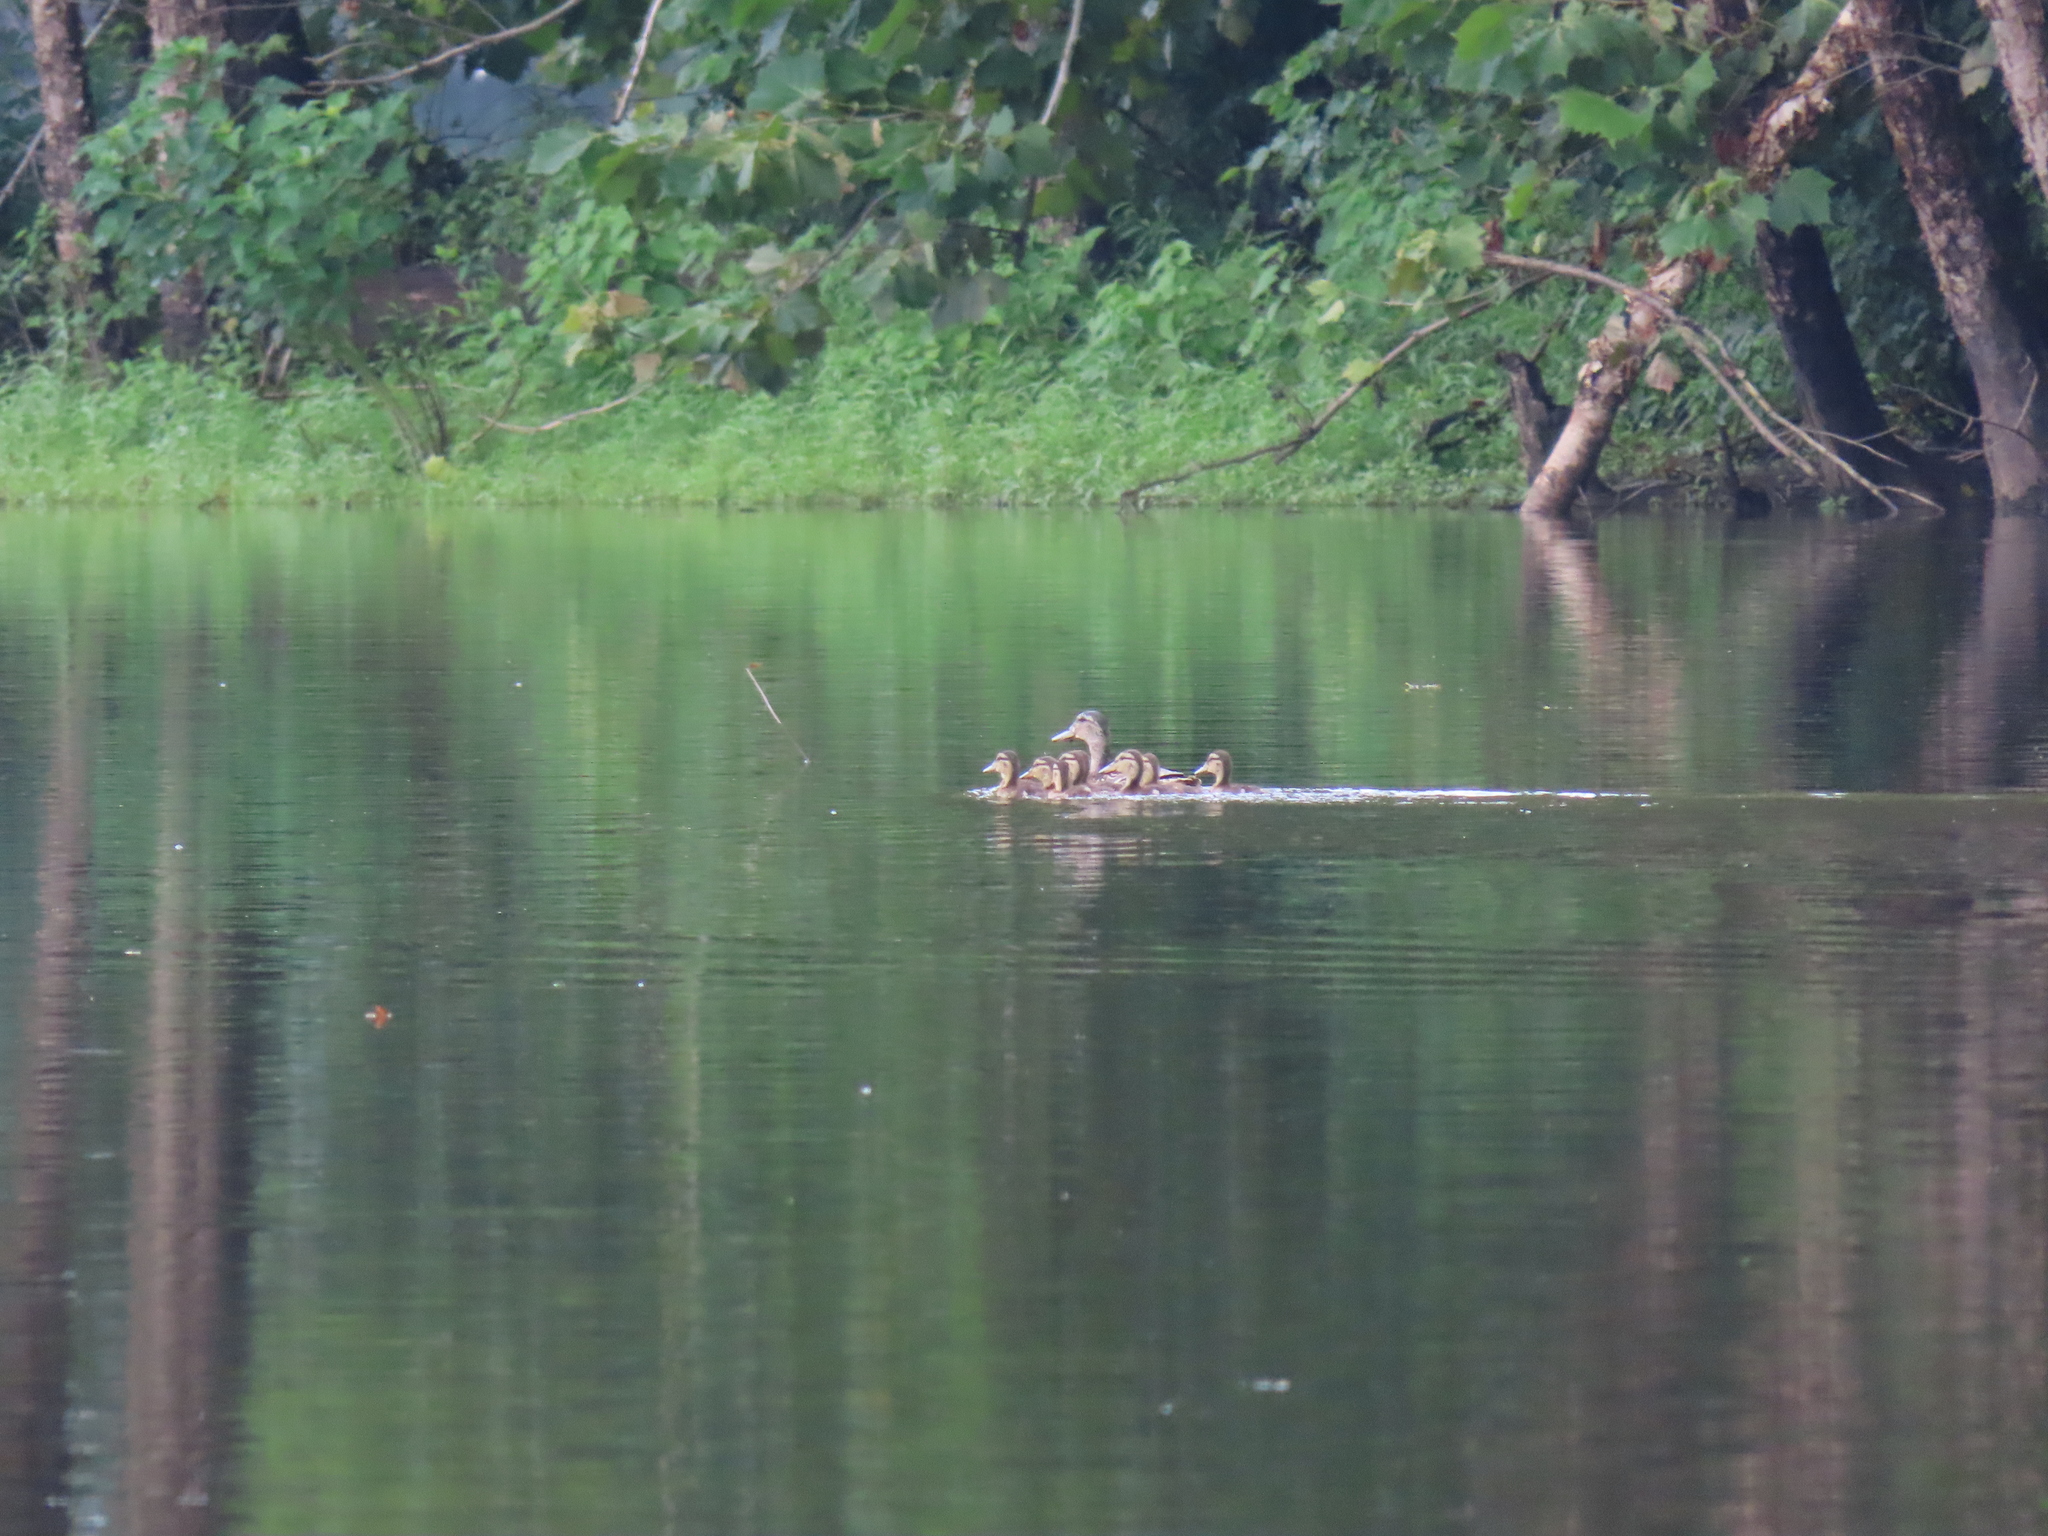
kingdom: Animalia
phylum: Chordata
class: Aves
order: Anseriformes
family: Anatidae
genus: Anas
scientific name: Anas platyrhynchos
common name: Mallard
